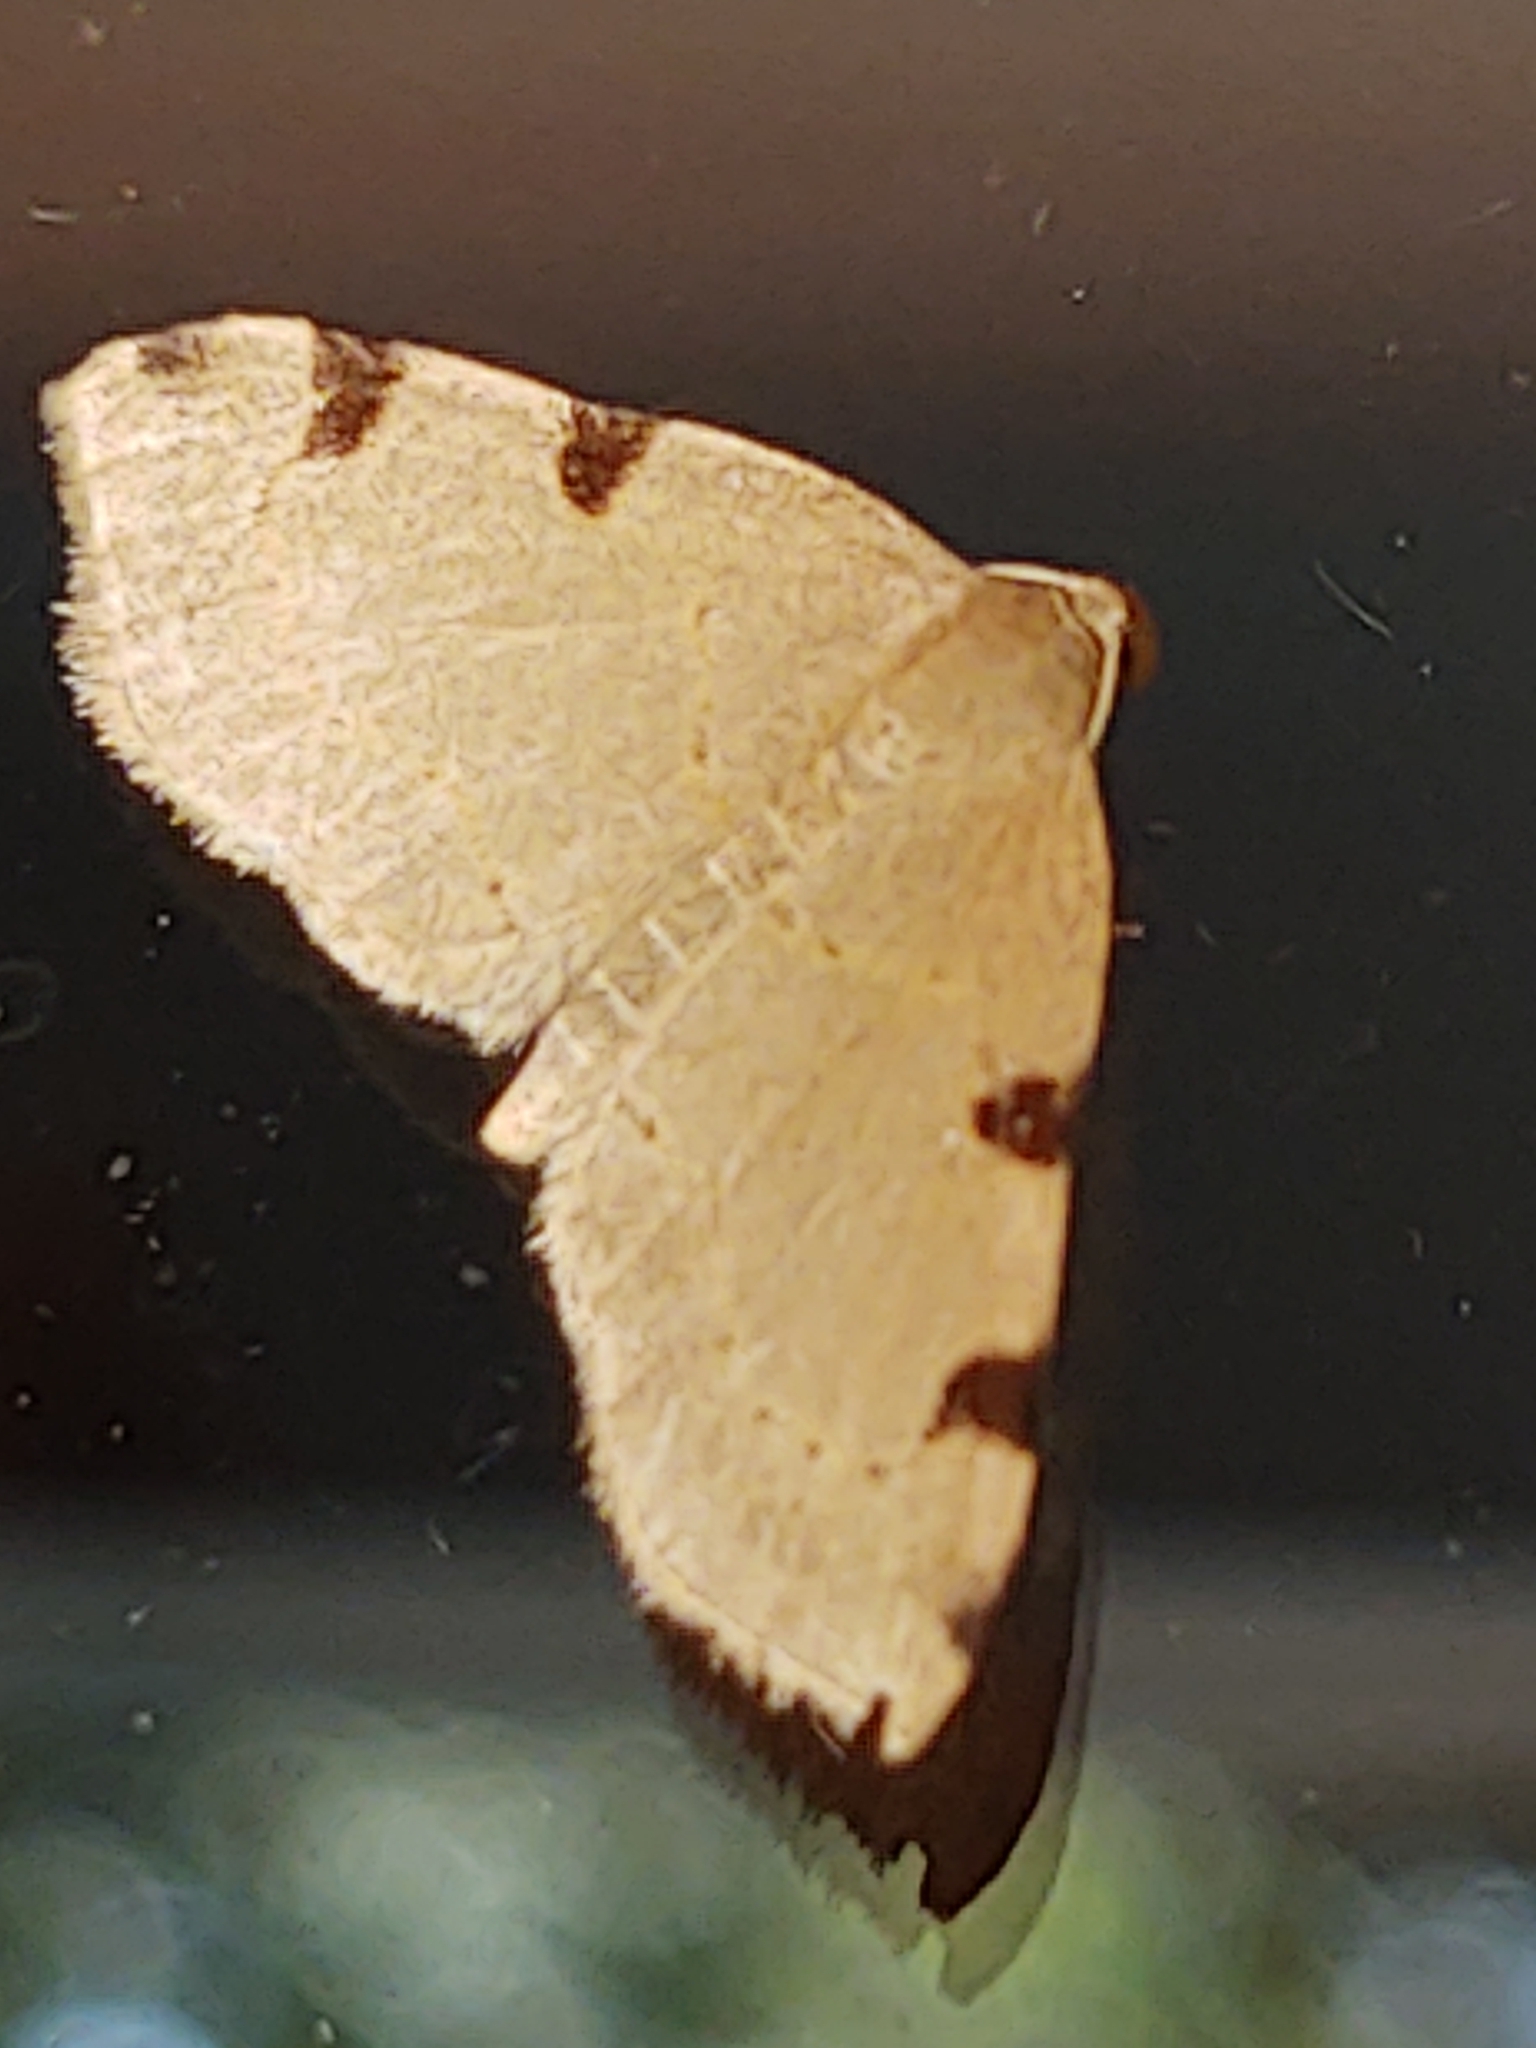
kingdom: Animalia
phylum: Arthropoda
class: Insecta
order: Lepidoptera
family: Geometridae
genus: Heterophleps
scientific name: Heterophleps triguttaria
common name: Three-spotted fillip
